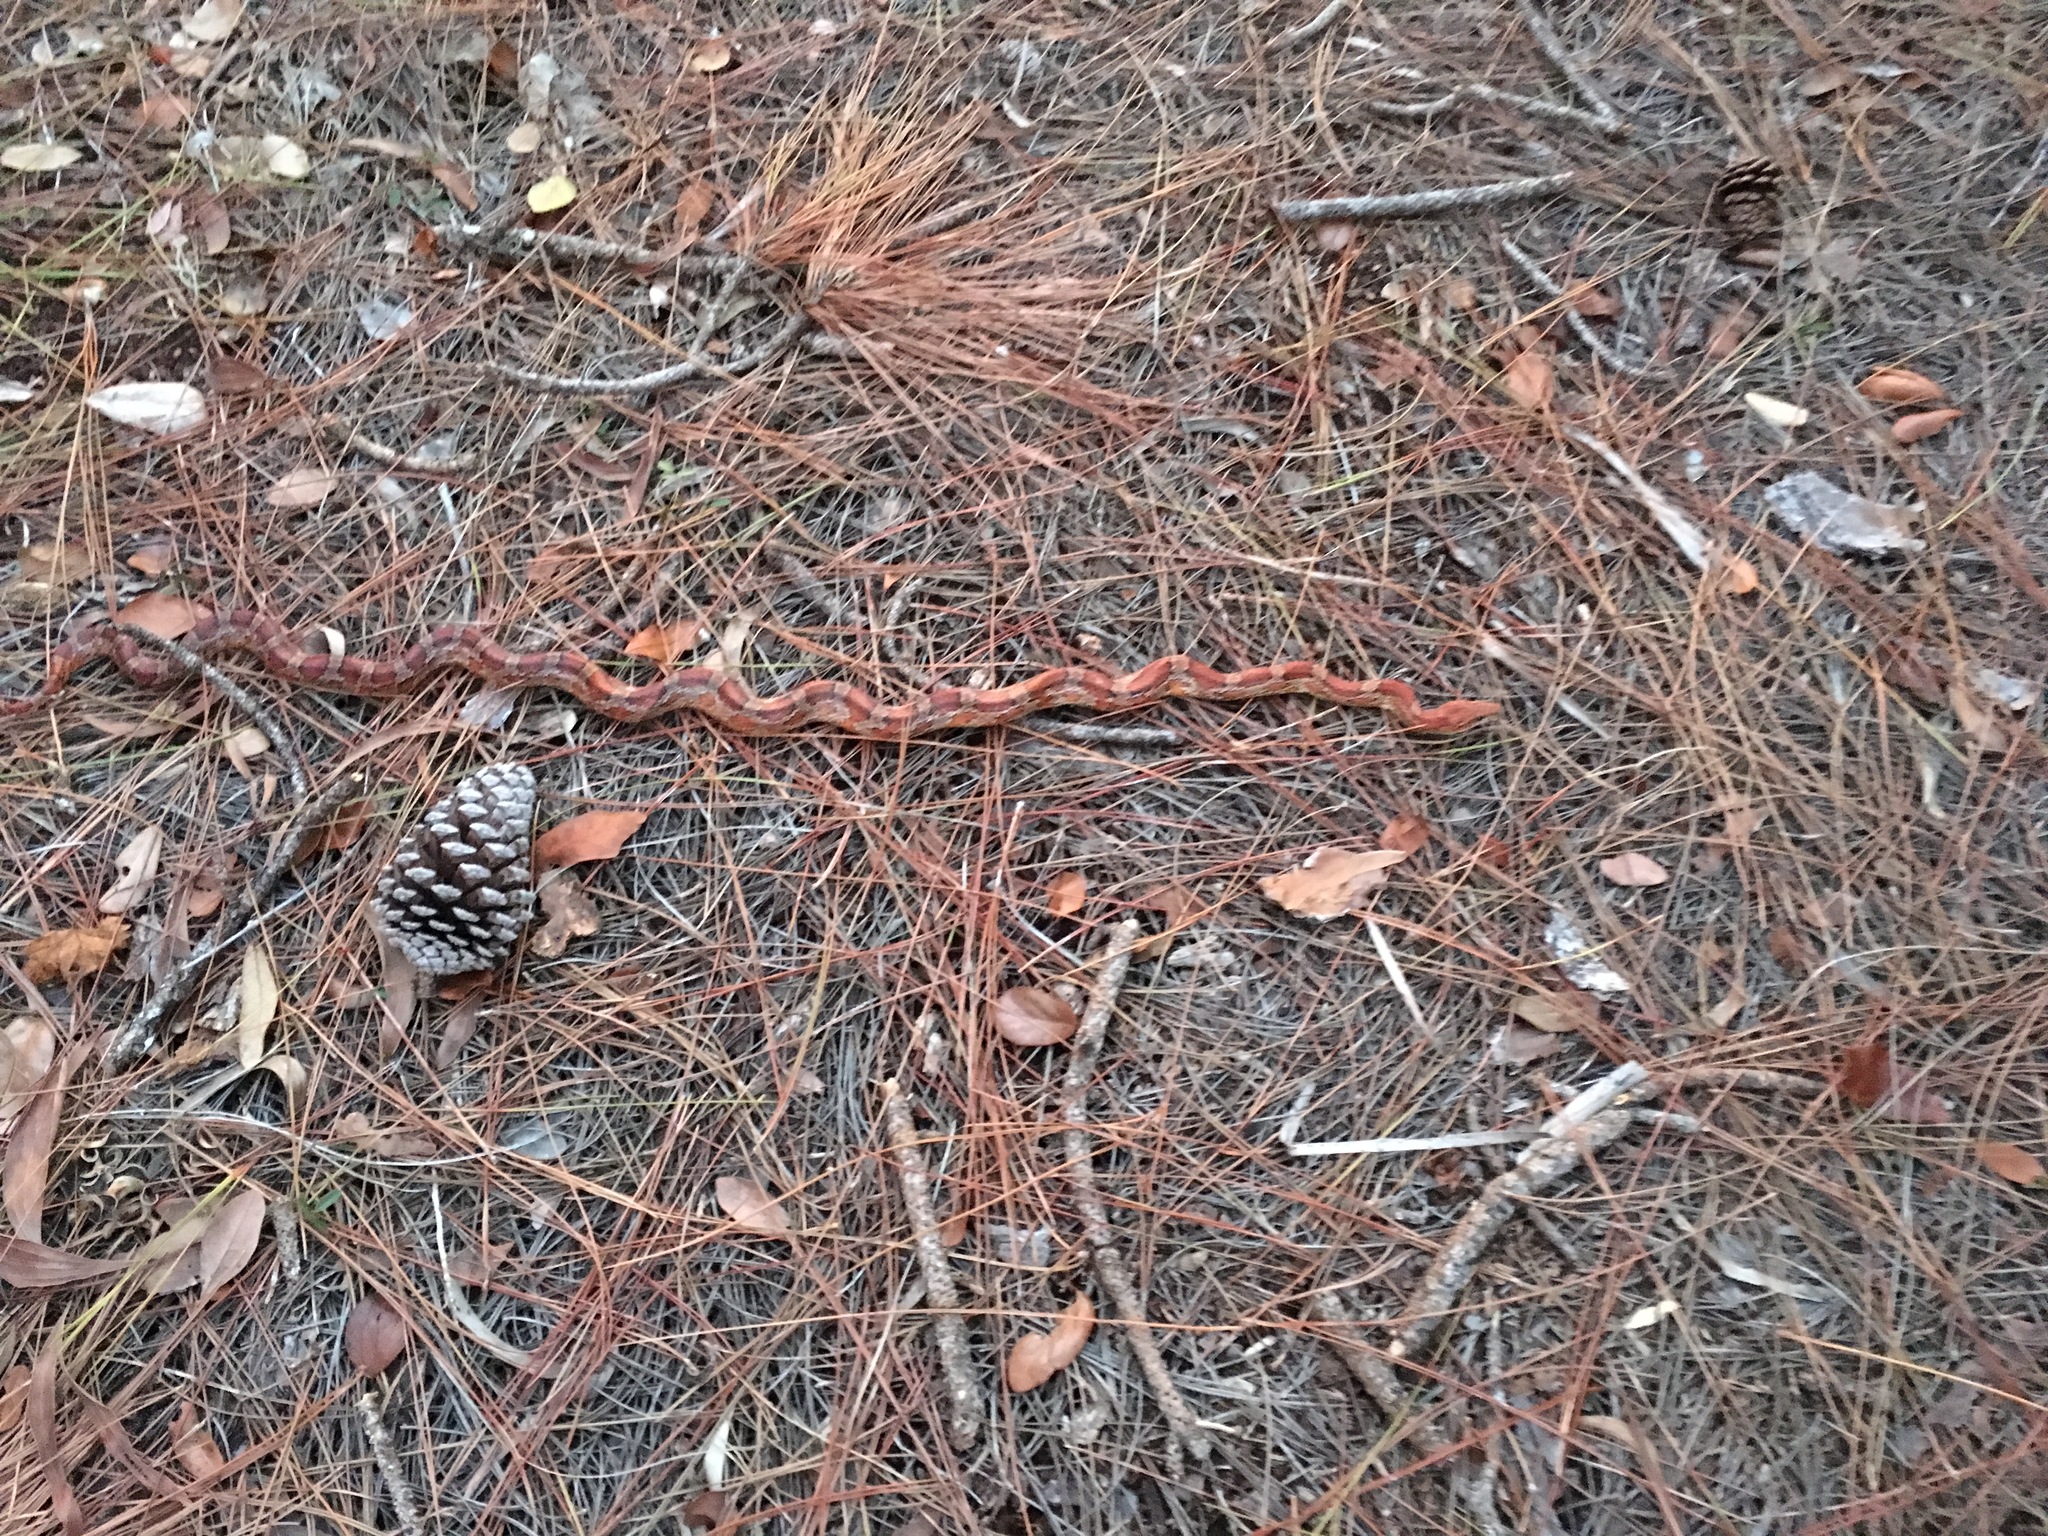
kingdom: Animalia
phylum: Chordata
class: Squamata
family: Colubridae
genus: Pantherophis
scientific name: Pantherophis guttatus
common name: Red cornsnake
